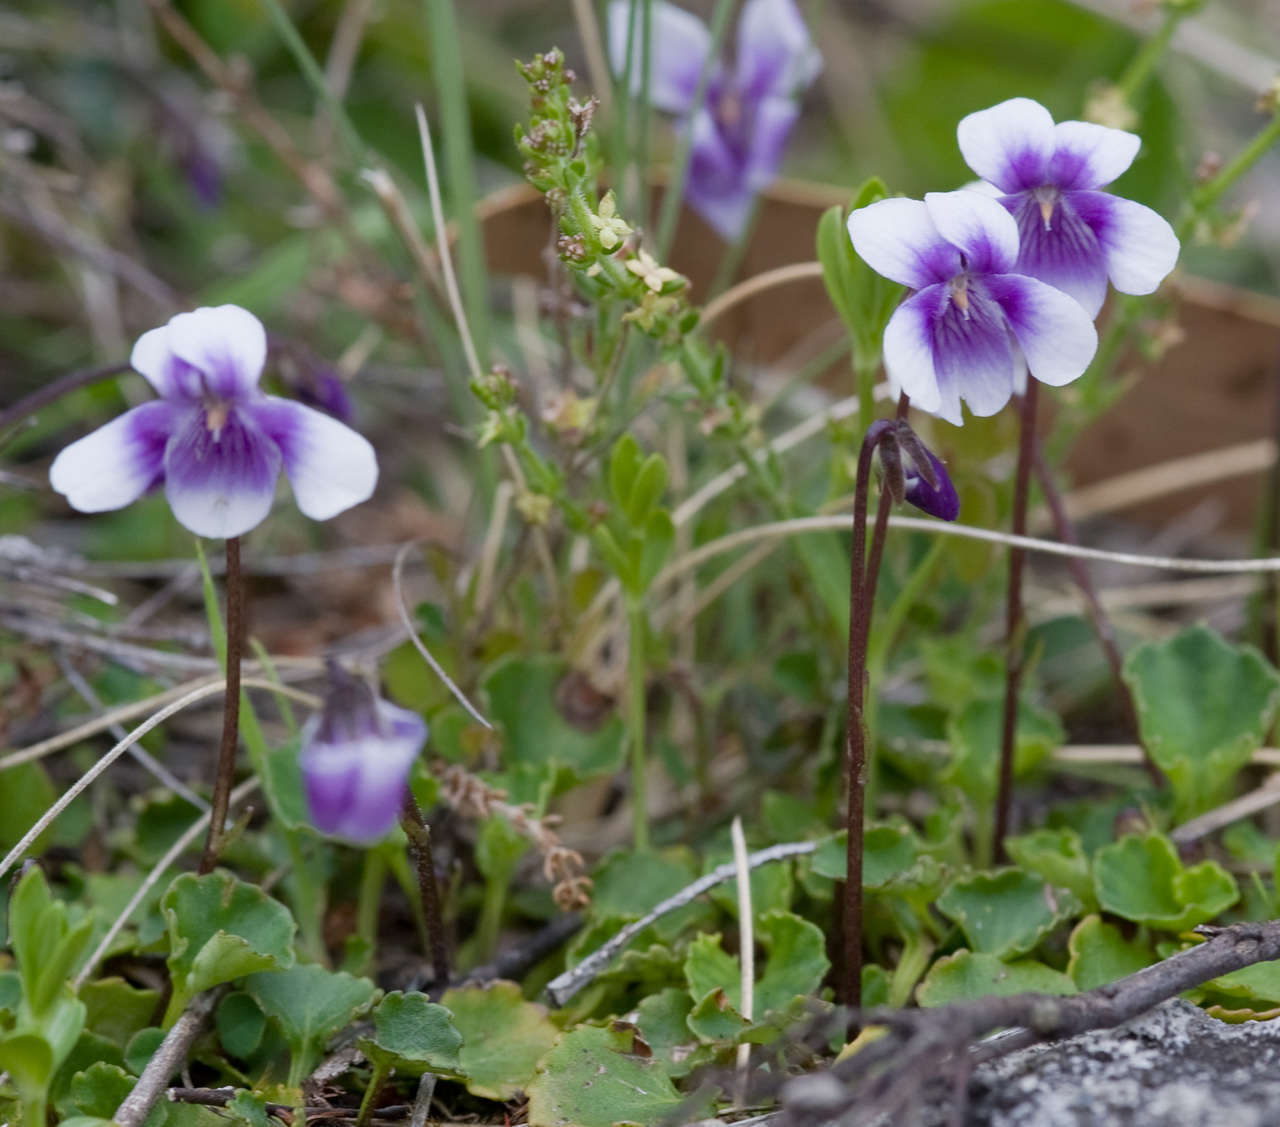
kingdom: Plantae
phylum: Tracheophyta
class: Magnoliopsida
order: Malpighiales
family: Violaceae
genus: Viola
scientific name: Viola hederacea
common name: Australian violet
